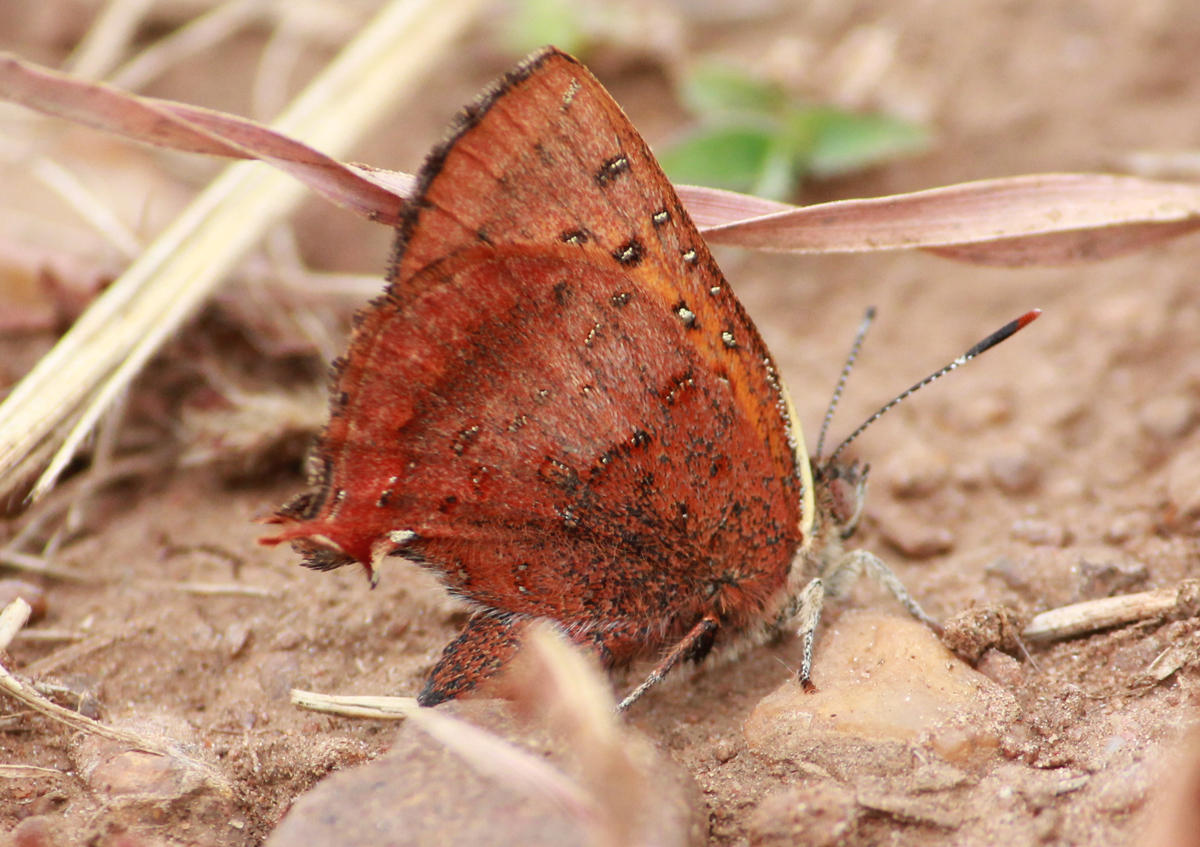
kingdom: Animalia
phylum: Arthropoda
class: Insecta
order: Lepidoptera
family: Lycaenidae
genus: Axiocerses
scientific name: Axiocerses perion
